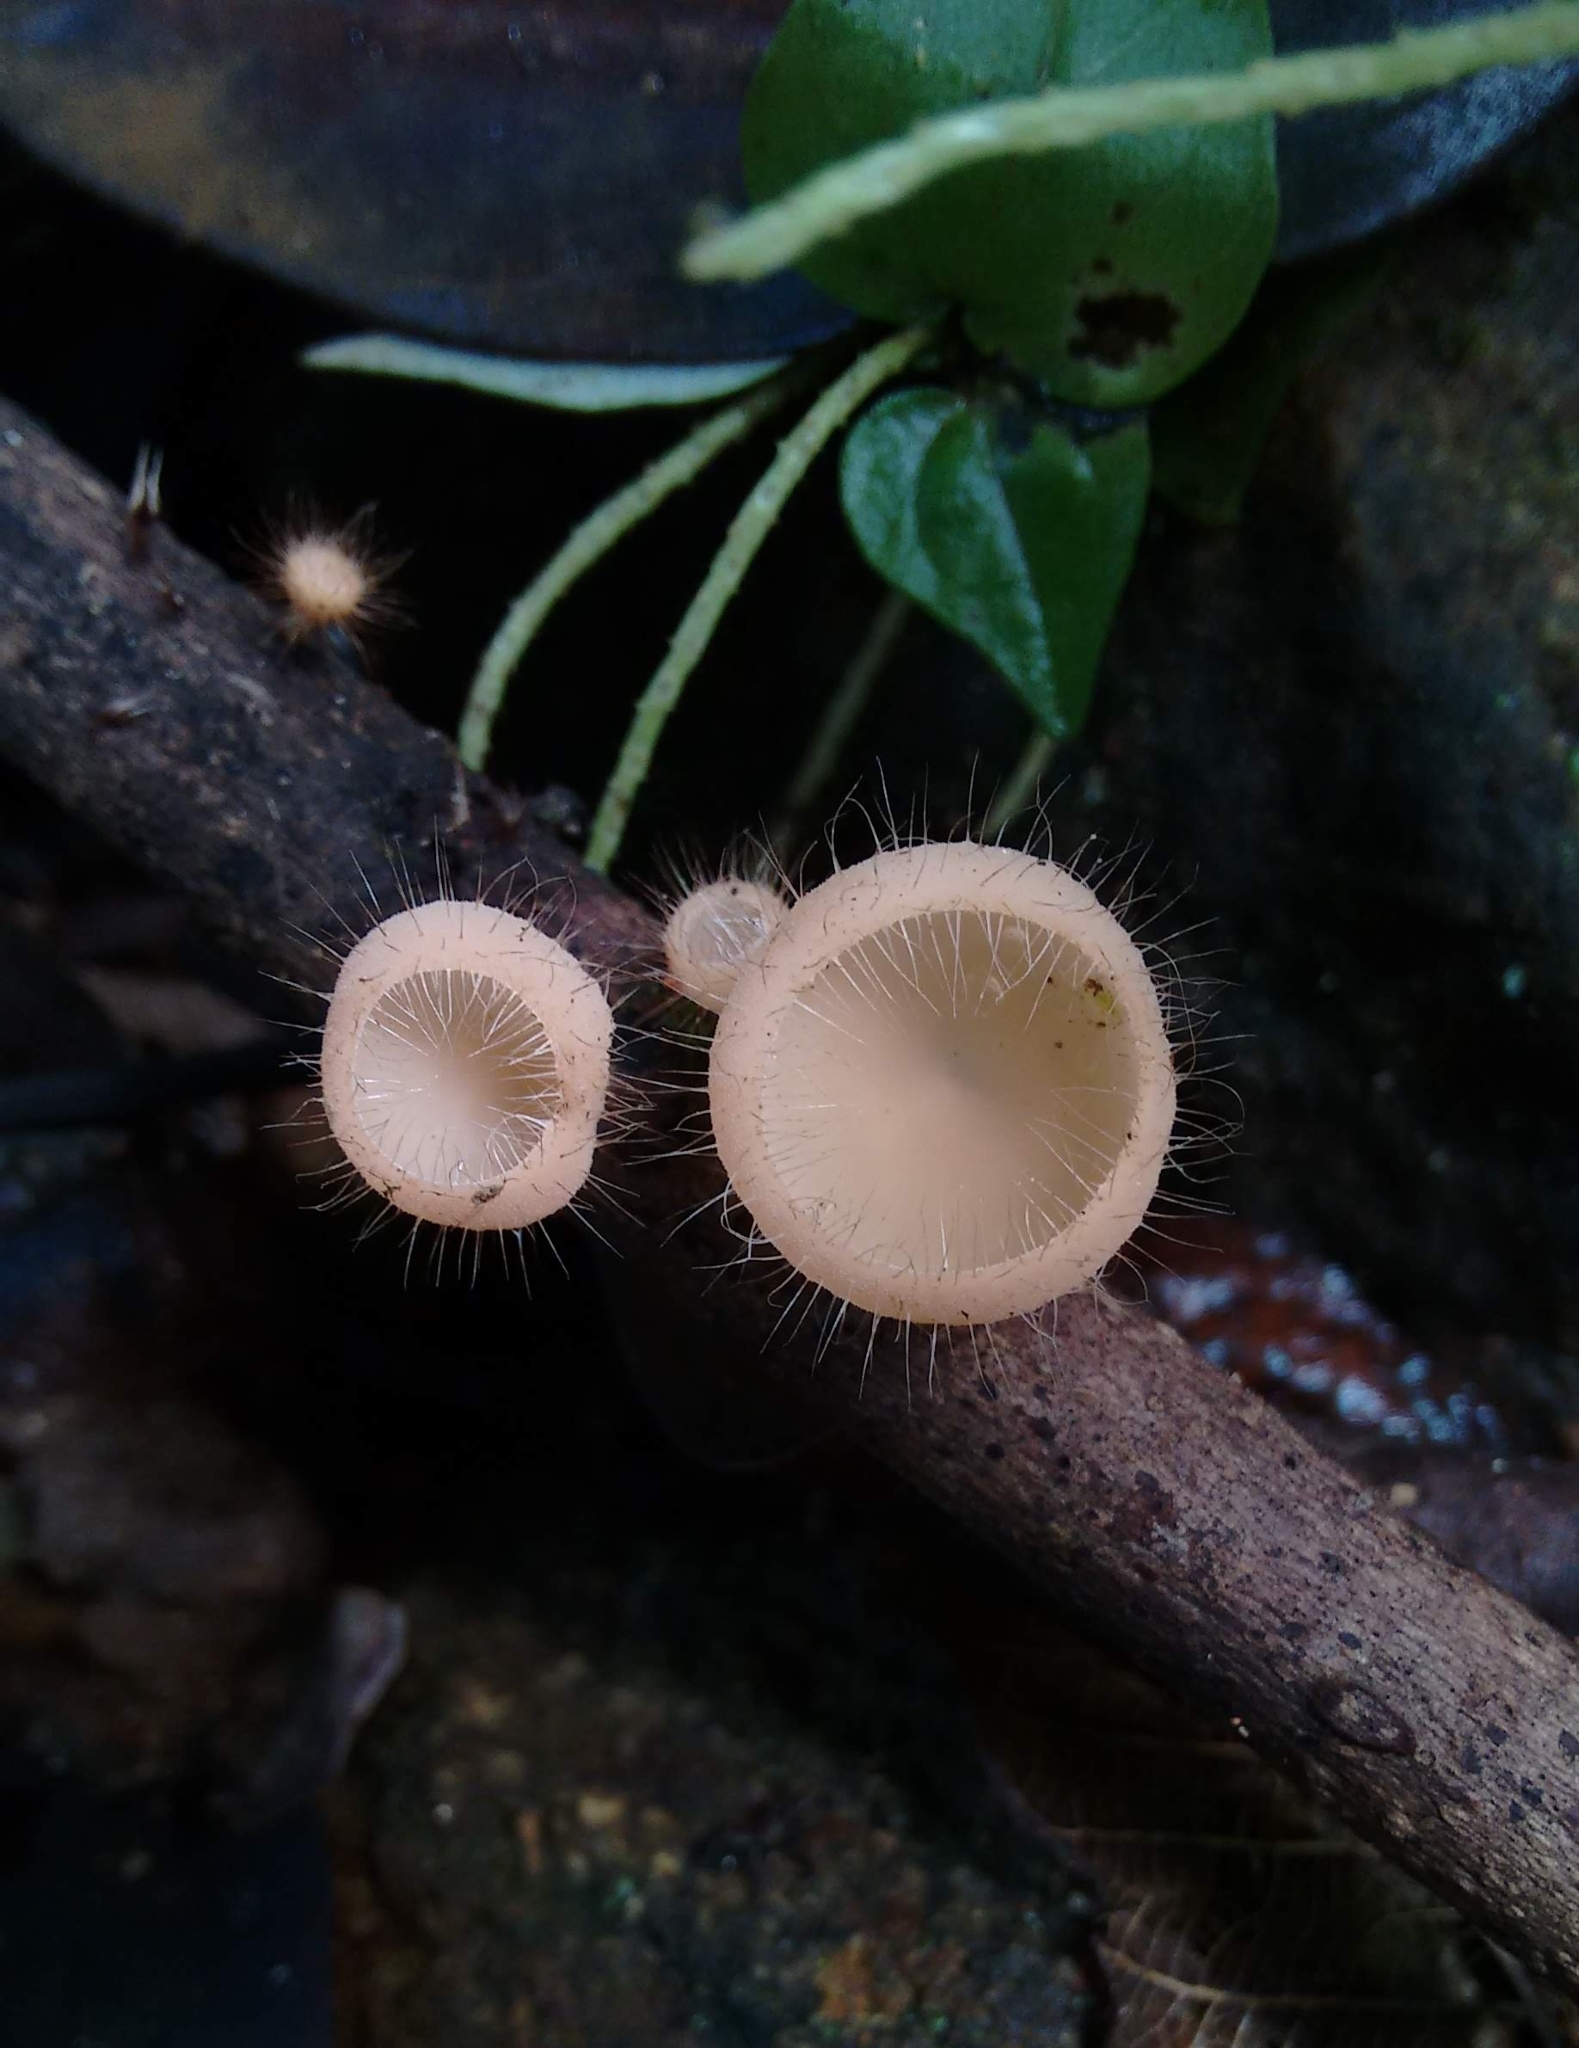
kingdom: Fungi
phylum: Ascomycota
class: Pezizomycetes
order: Pezizales
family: Sarcoscyphaceae
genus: Cookeina
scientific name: Cookeina tricholoma
